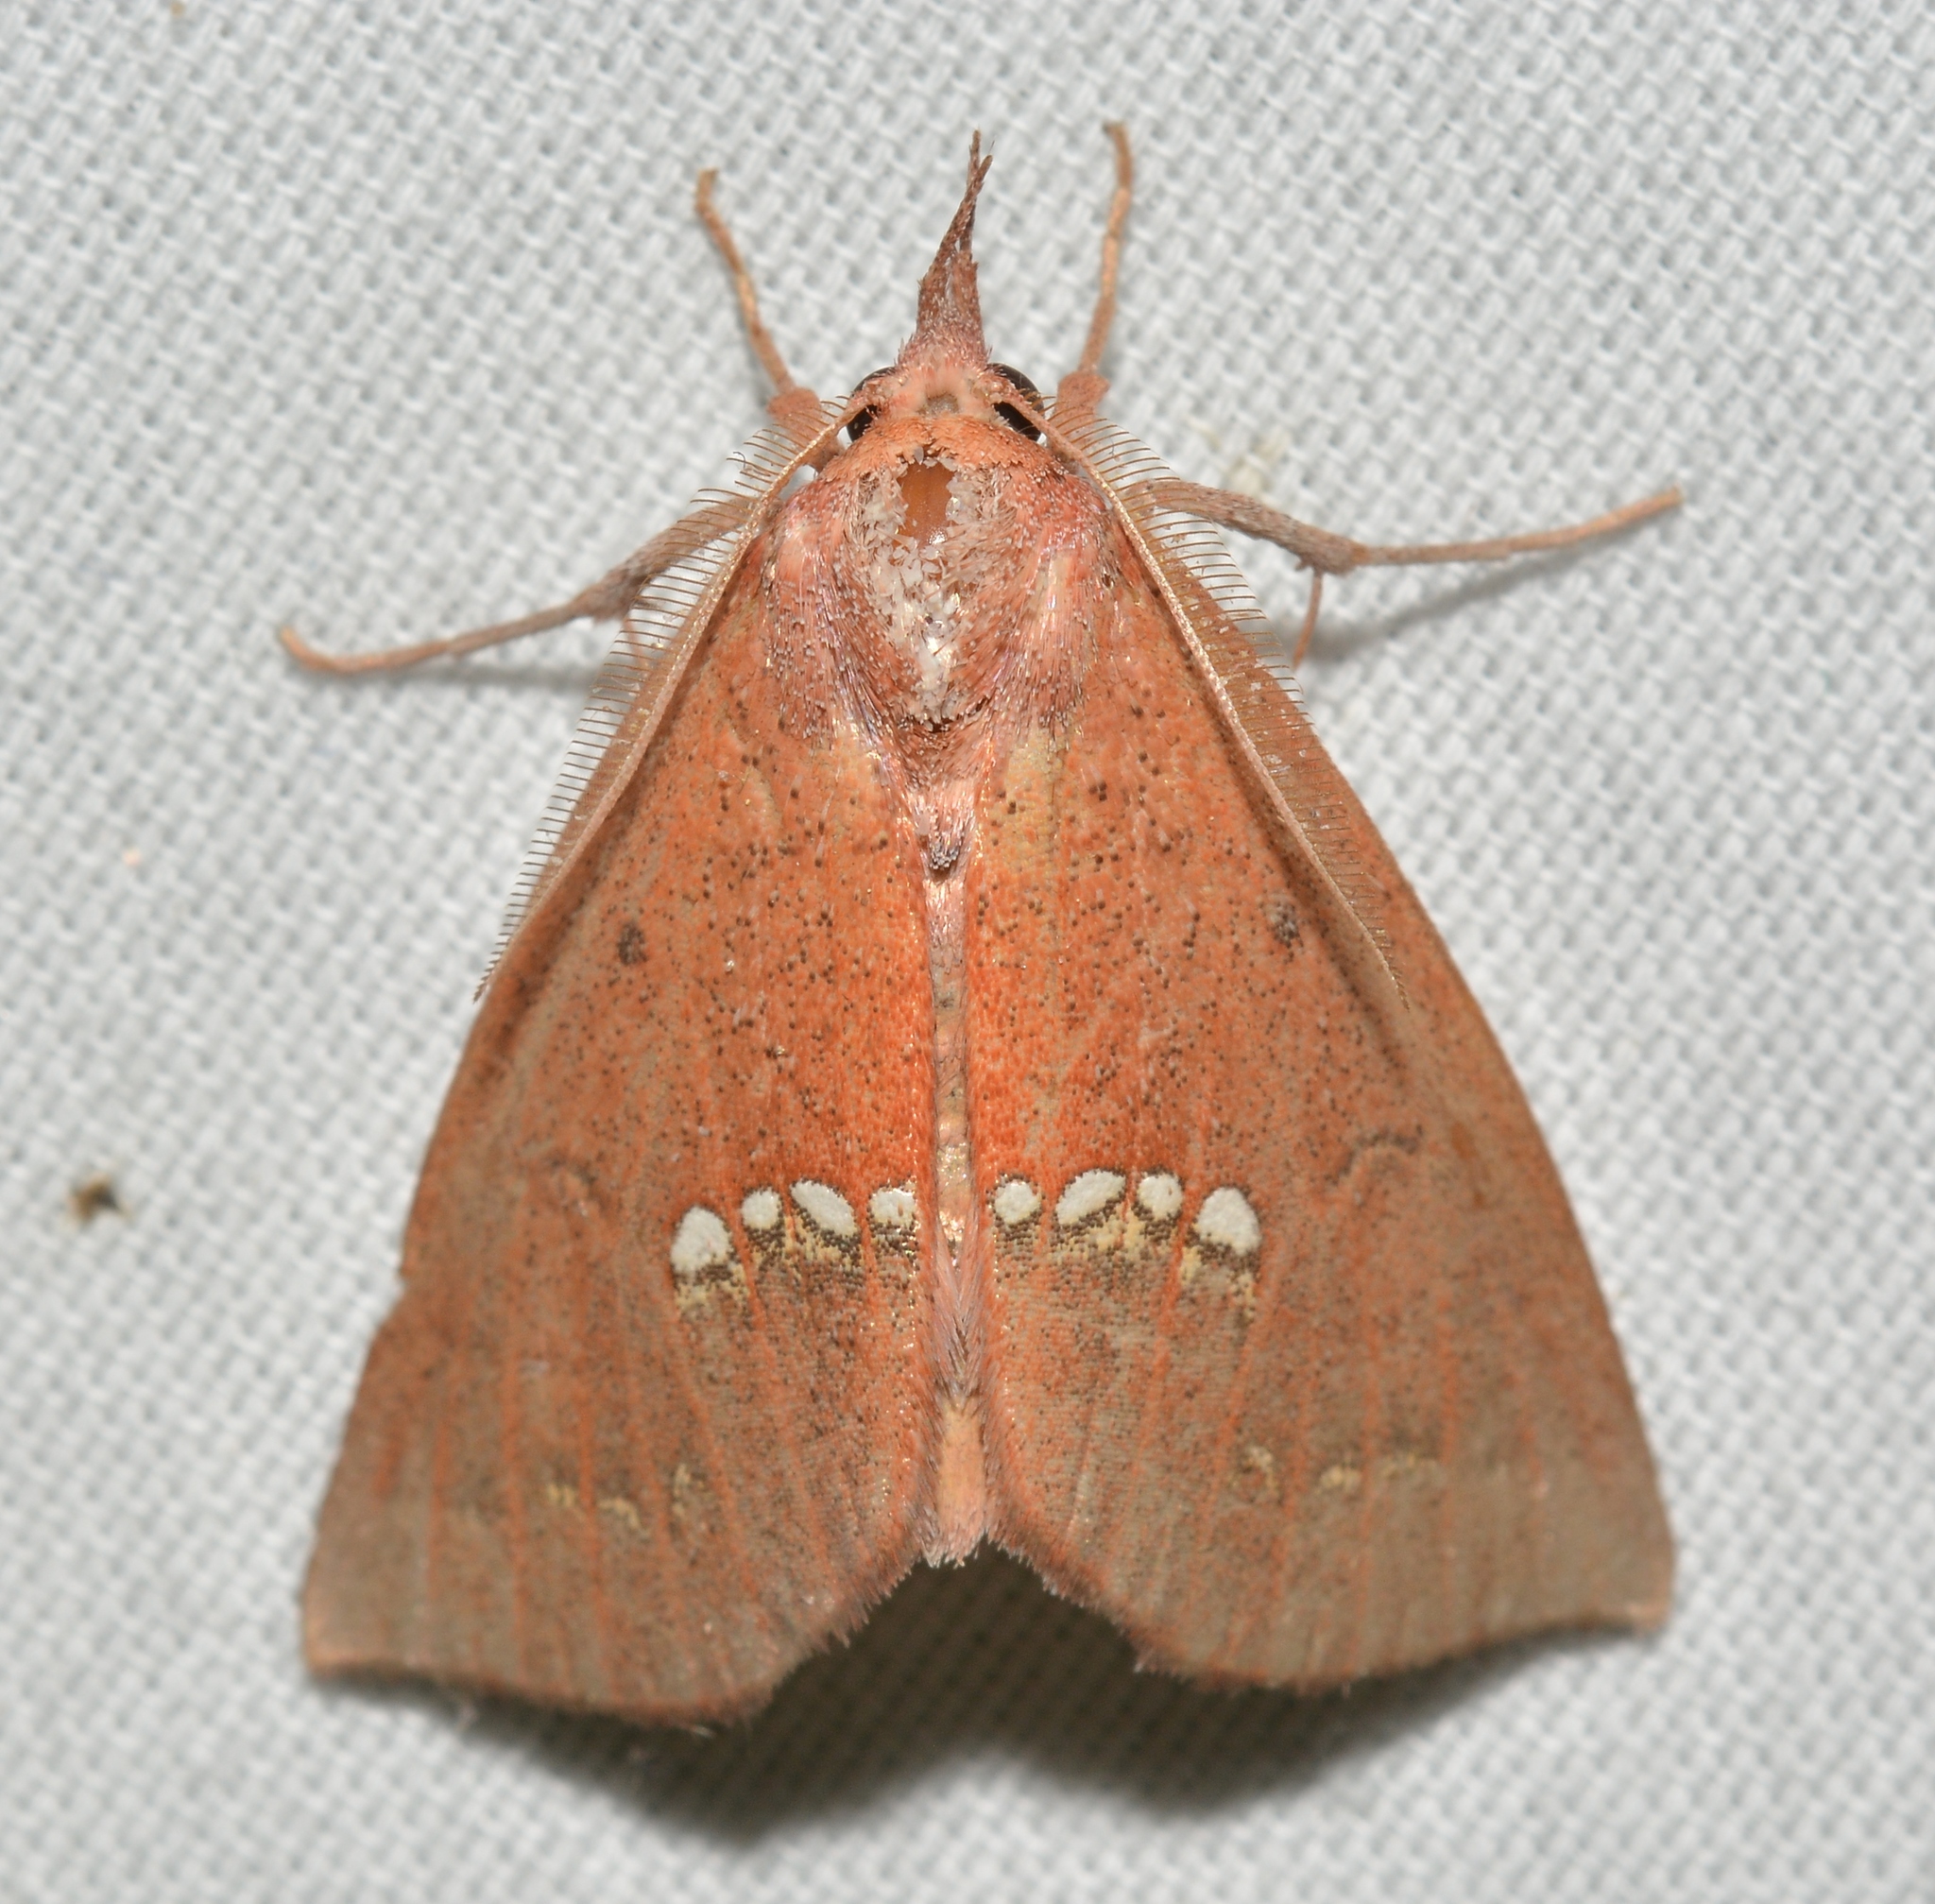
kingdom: Animalia
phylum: Arthropoda
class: Insecta
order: Lepidoptera
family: Erebidae
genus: Hypsoropha
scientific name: Hypsoropha monilis
